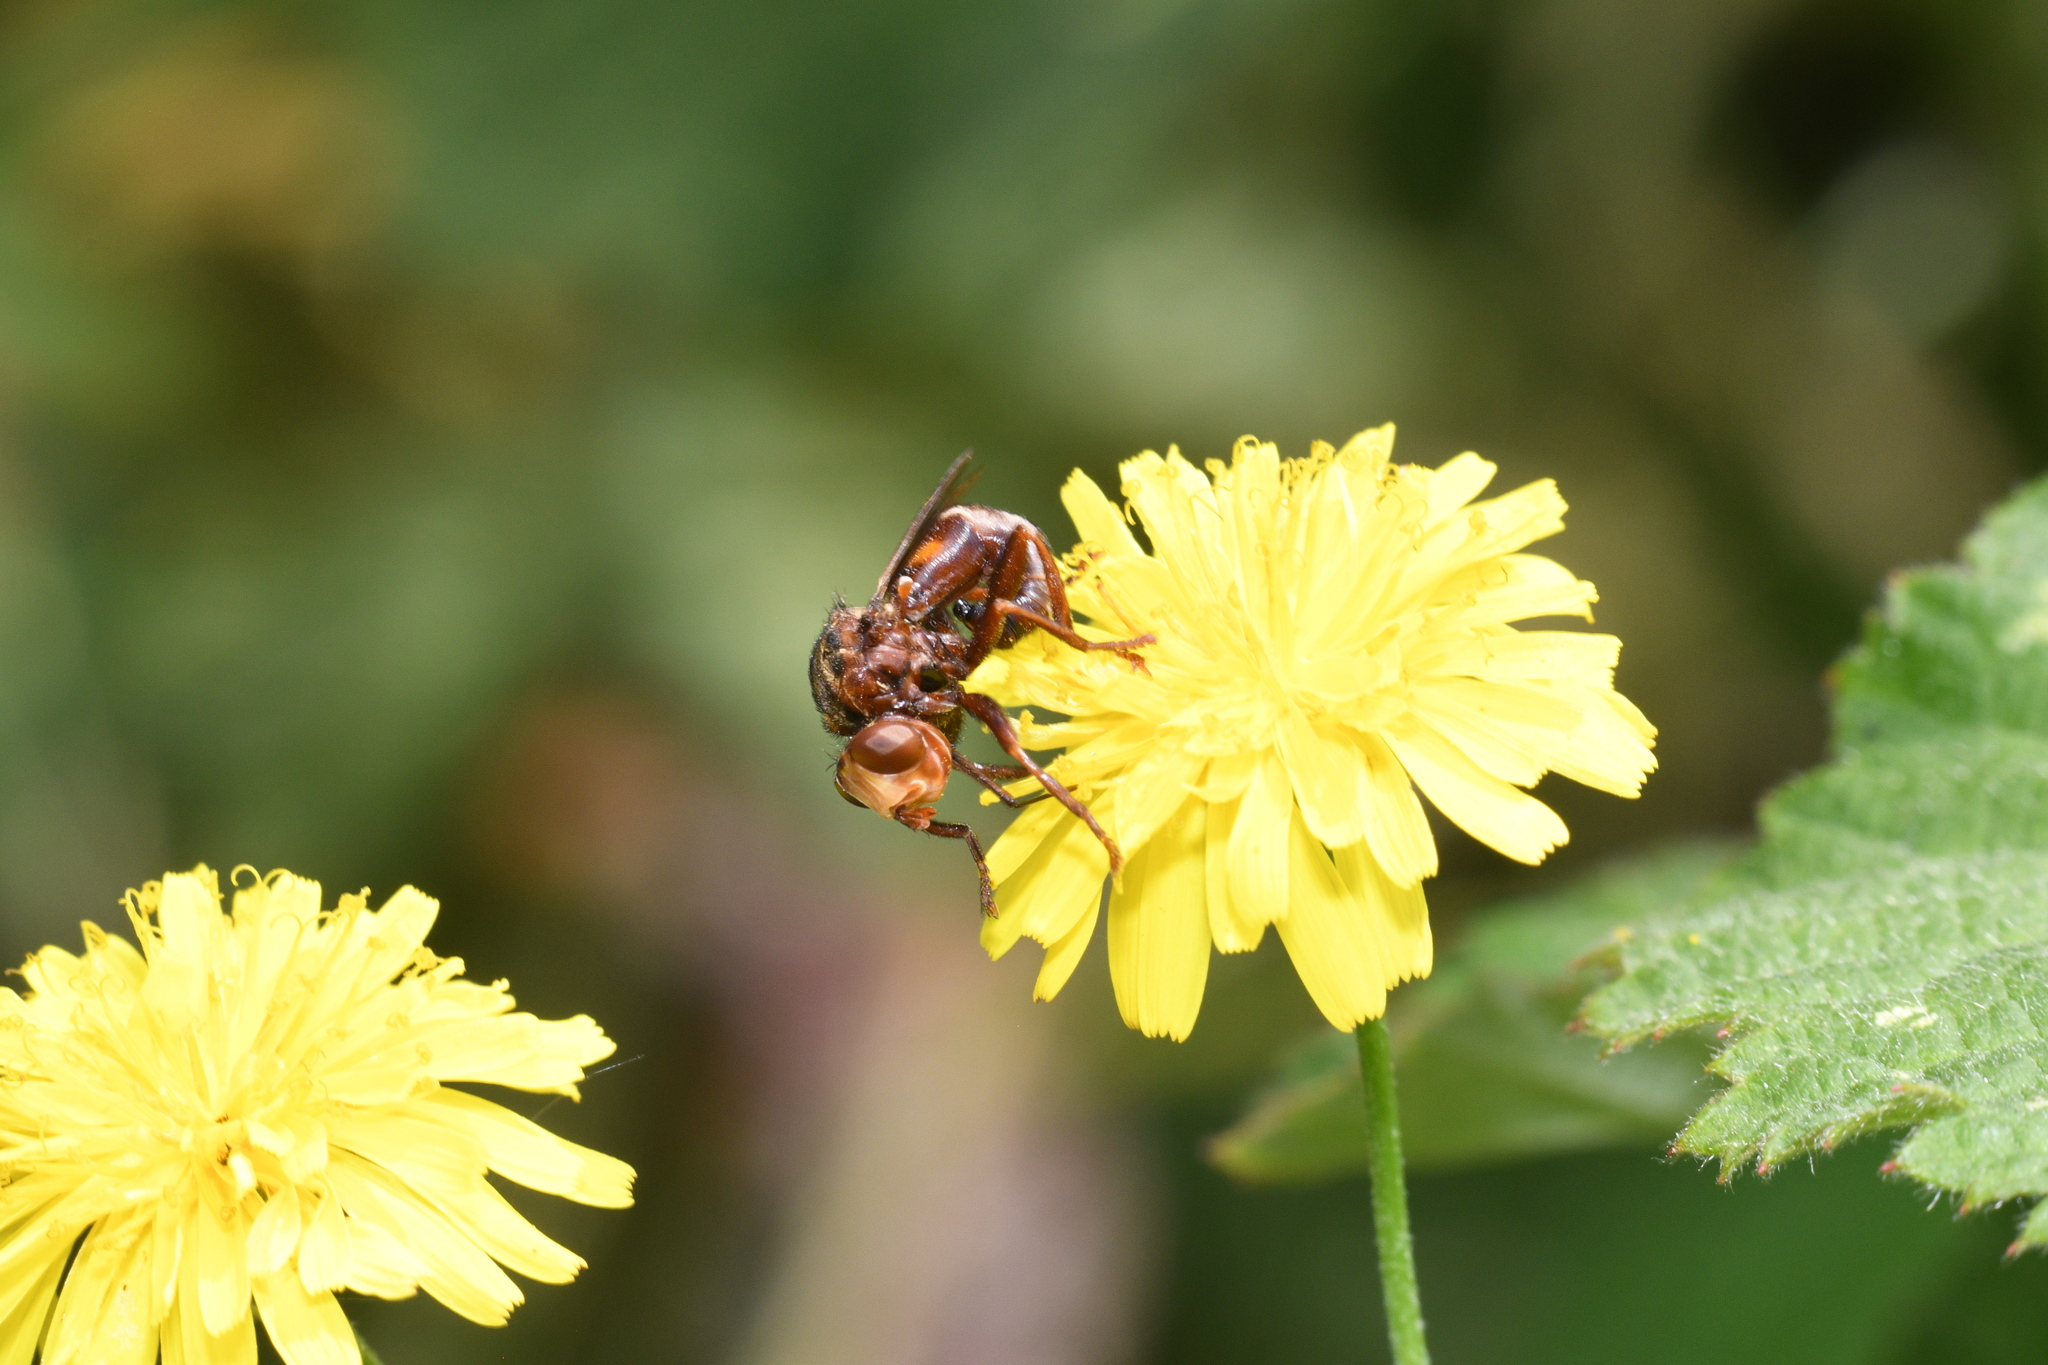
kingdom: Animalia
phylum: Arthropoda
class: Insecta
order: Diptera
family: Conopidae
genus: Sicus
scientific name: Sicus ferrugineus
